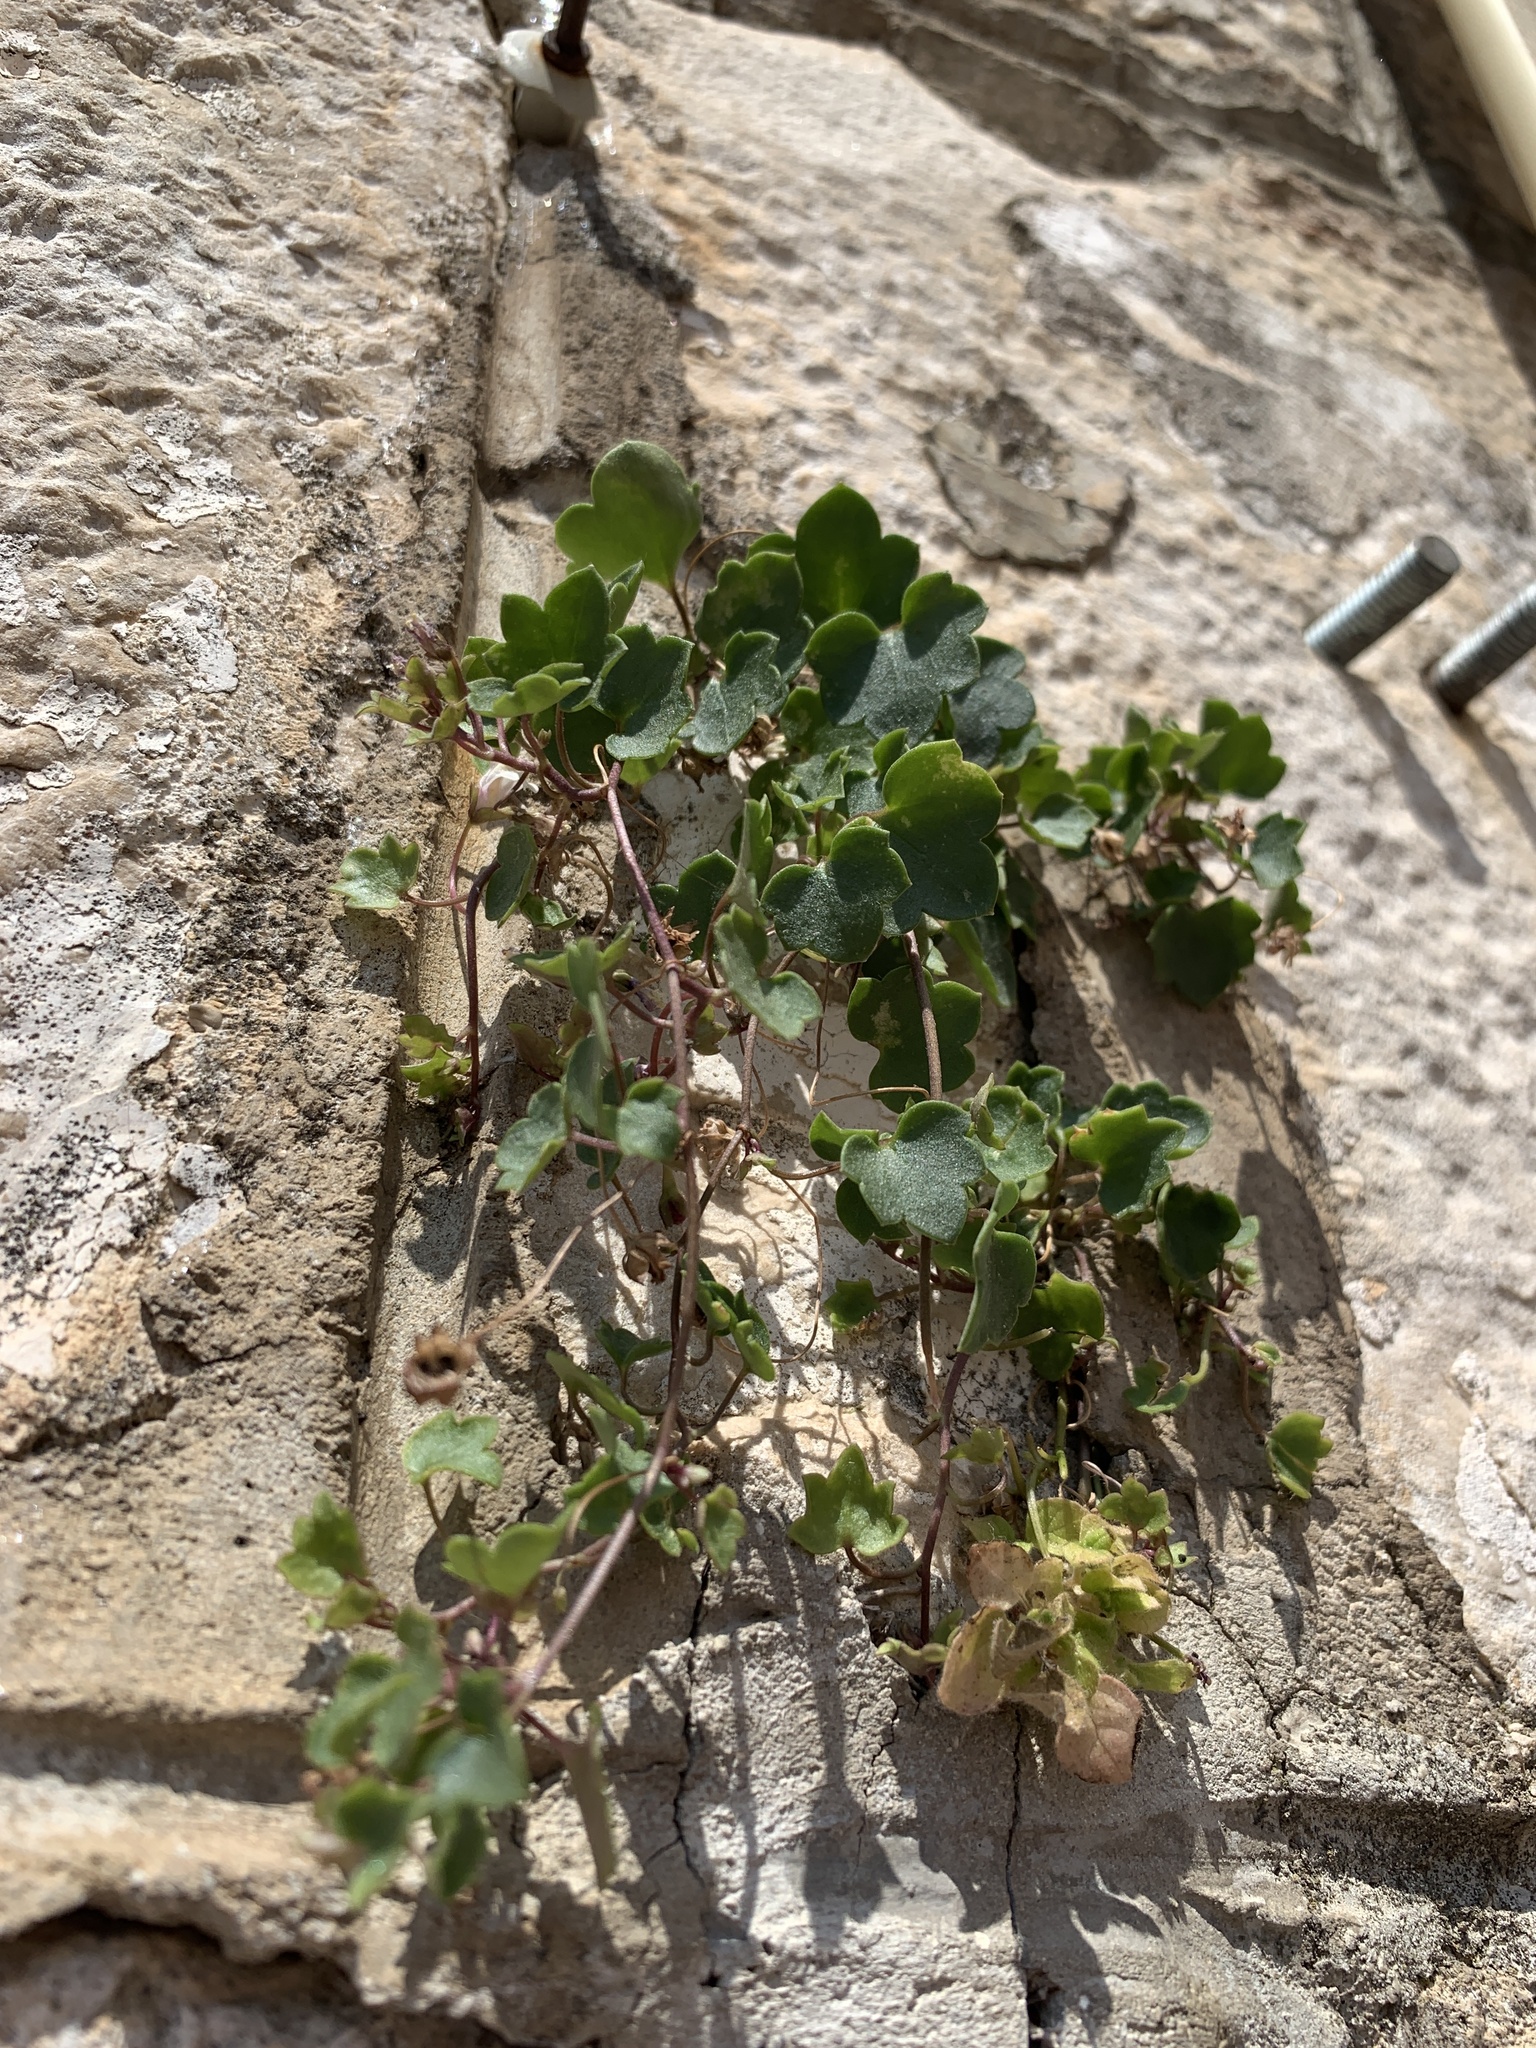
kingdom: Plantae
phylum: Tracheophyta
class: Magnoliopsida
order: Lamiales
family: Plantaginaceae
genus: Cymbalaria
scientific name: Cymbalaria muralis
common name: Ivy-leaved toadflax
